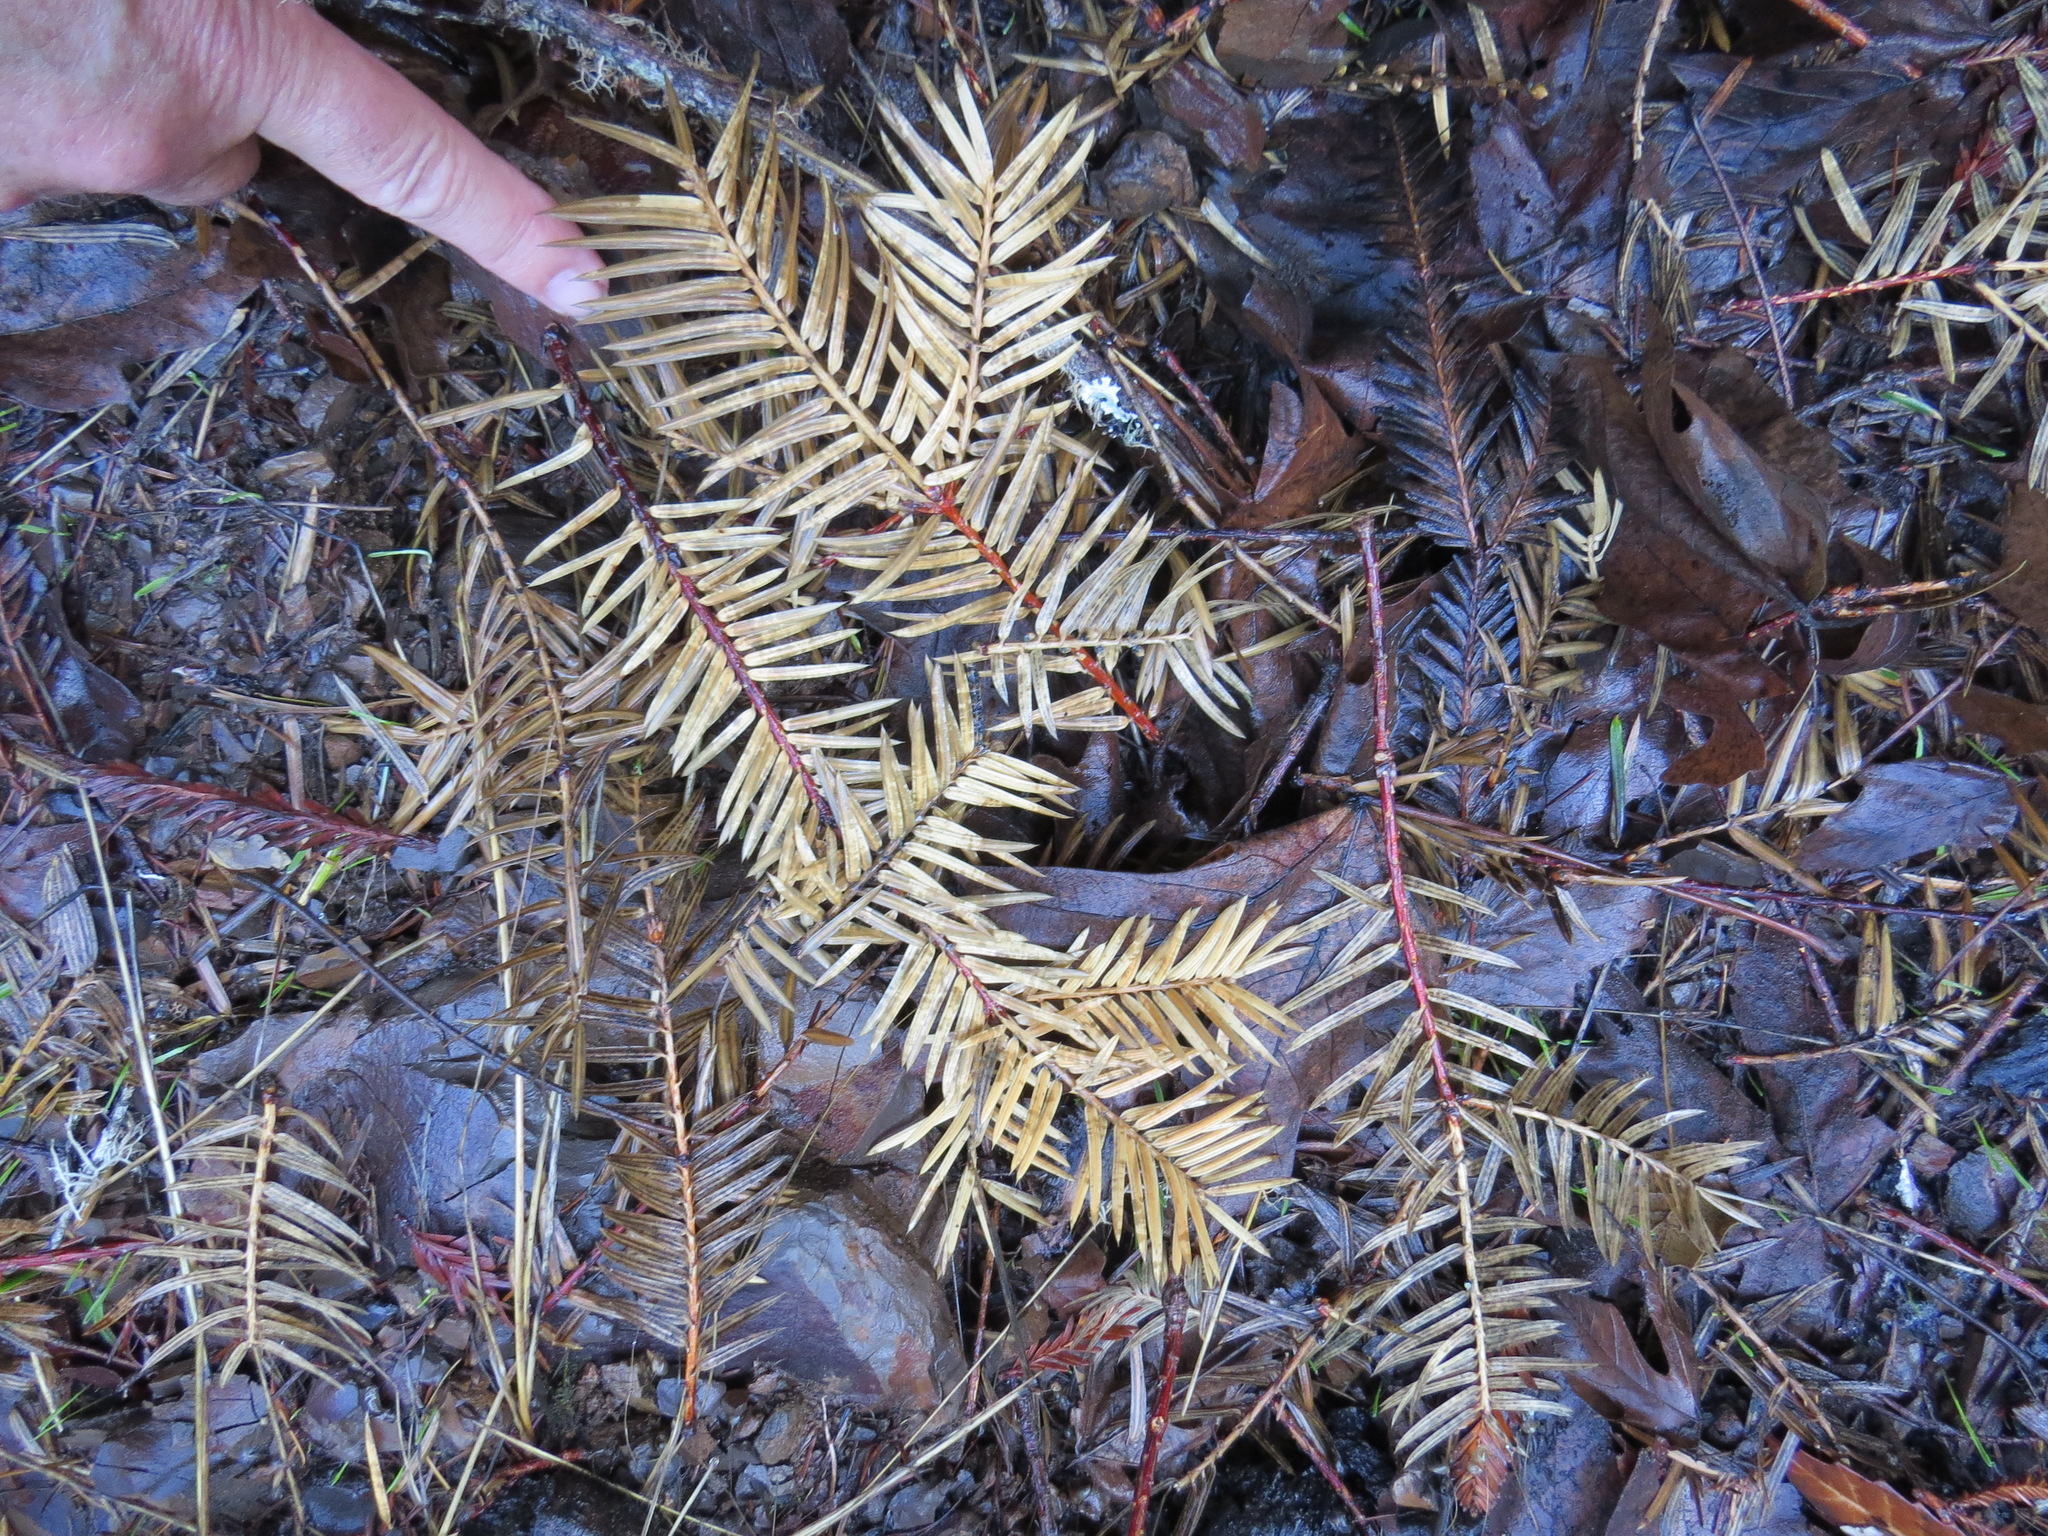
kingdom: Plantae
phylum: Tracheophyta
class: Pinopsida
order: Pinales
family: Taxaceae
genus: Torreya
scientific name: Torreya californica
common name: California torreya
